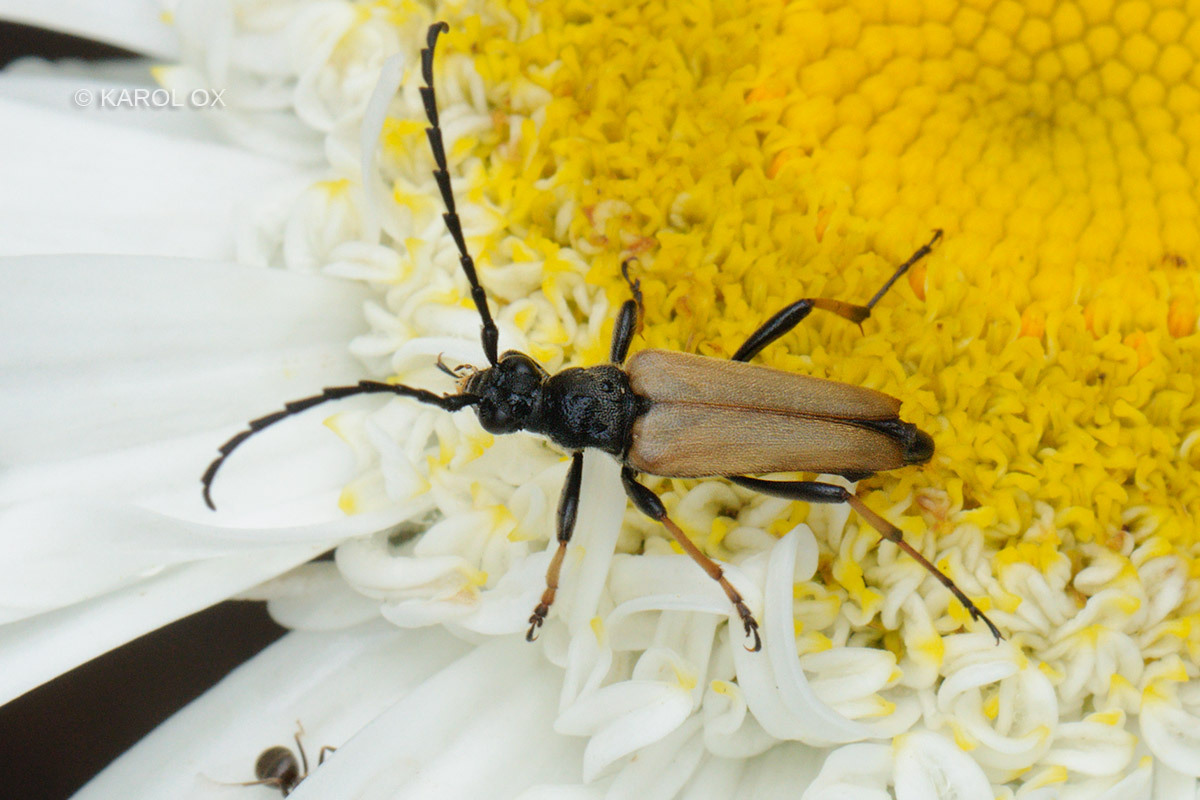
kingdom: Animalia
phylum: Arthropoda
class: Insecta
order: Coleoptera
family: Cerambycidae
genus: Stictoleptura
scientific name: Stictoleptura rubra
